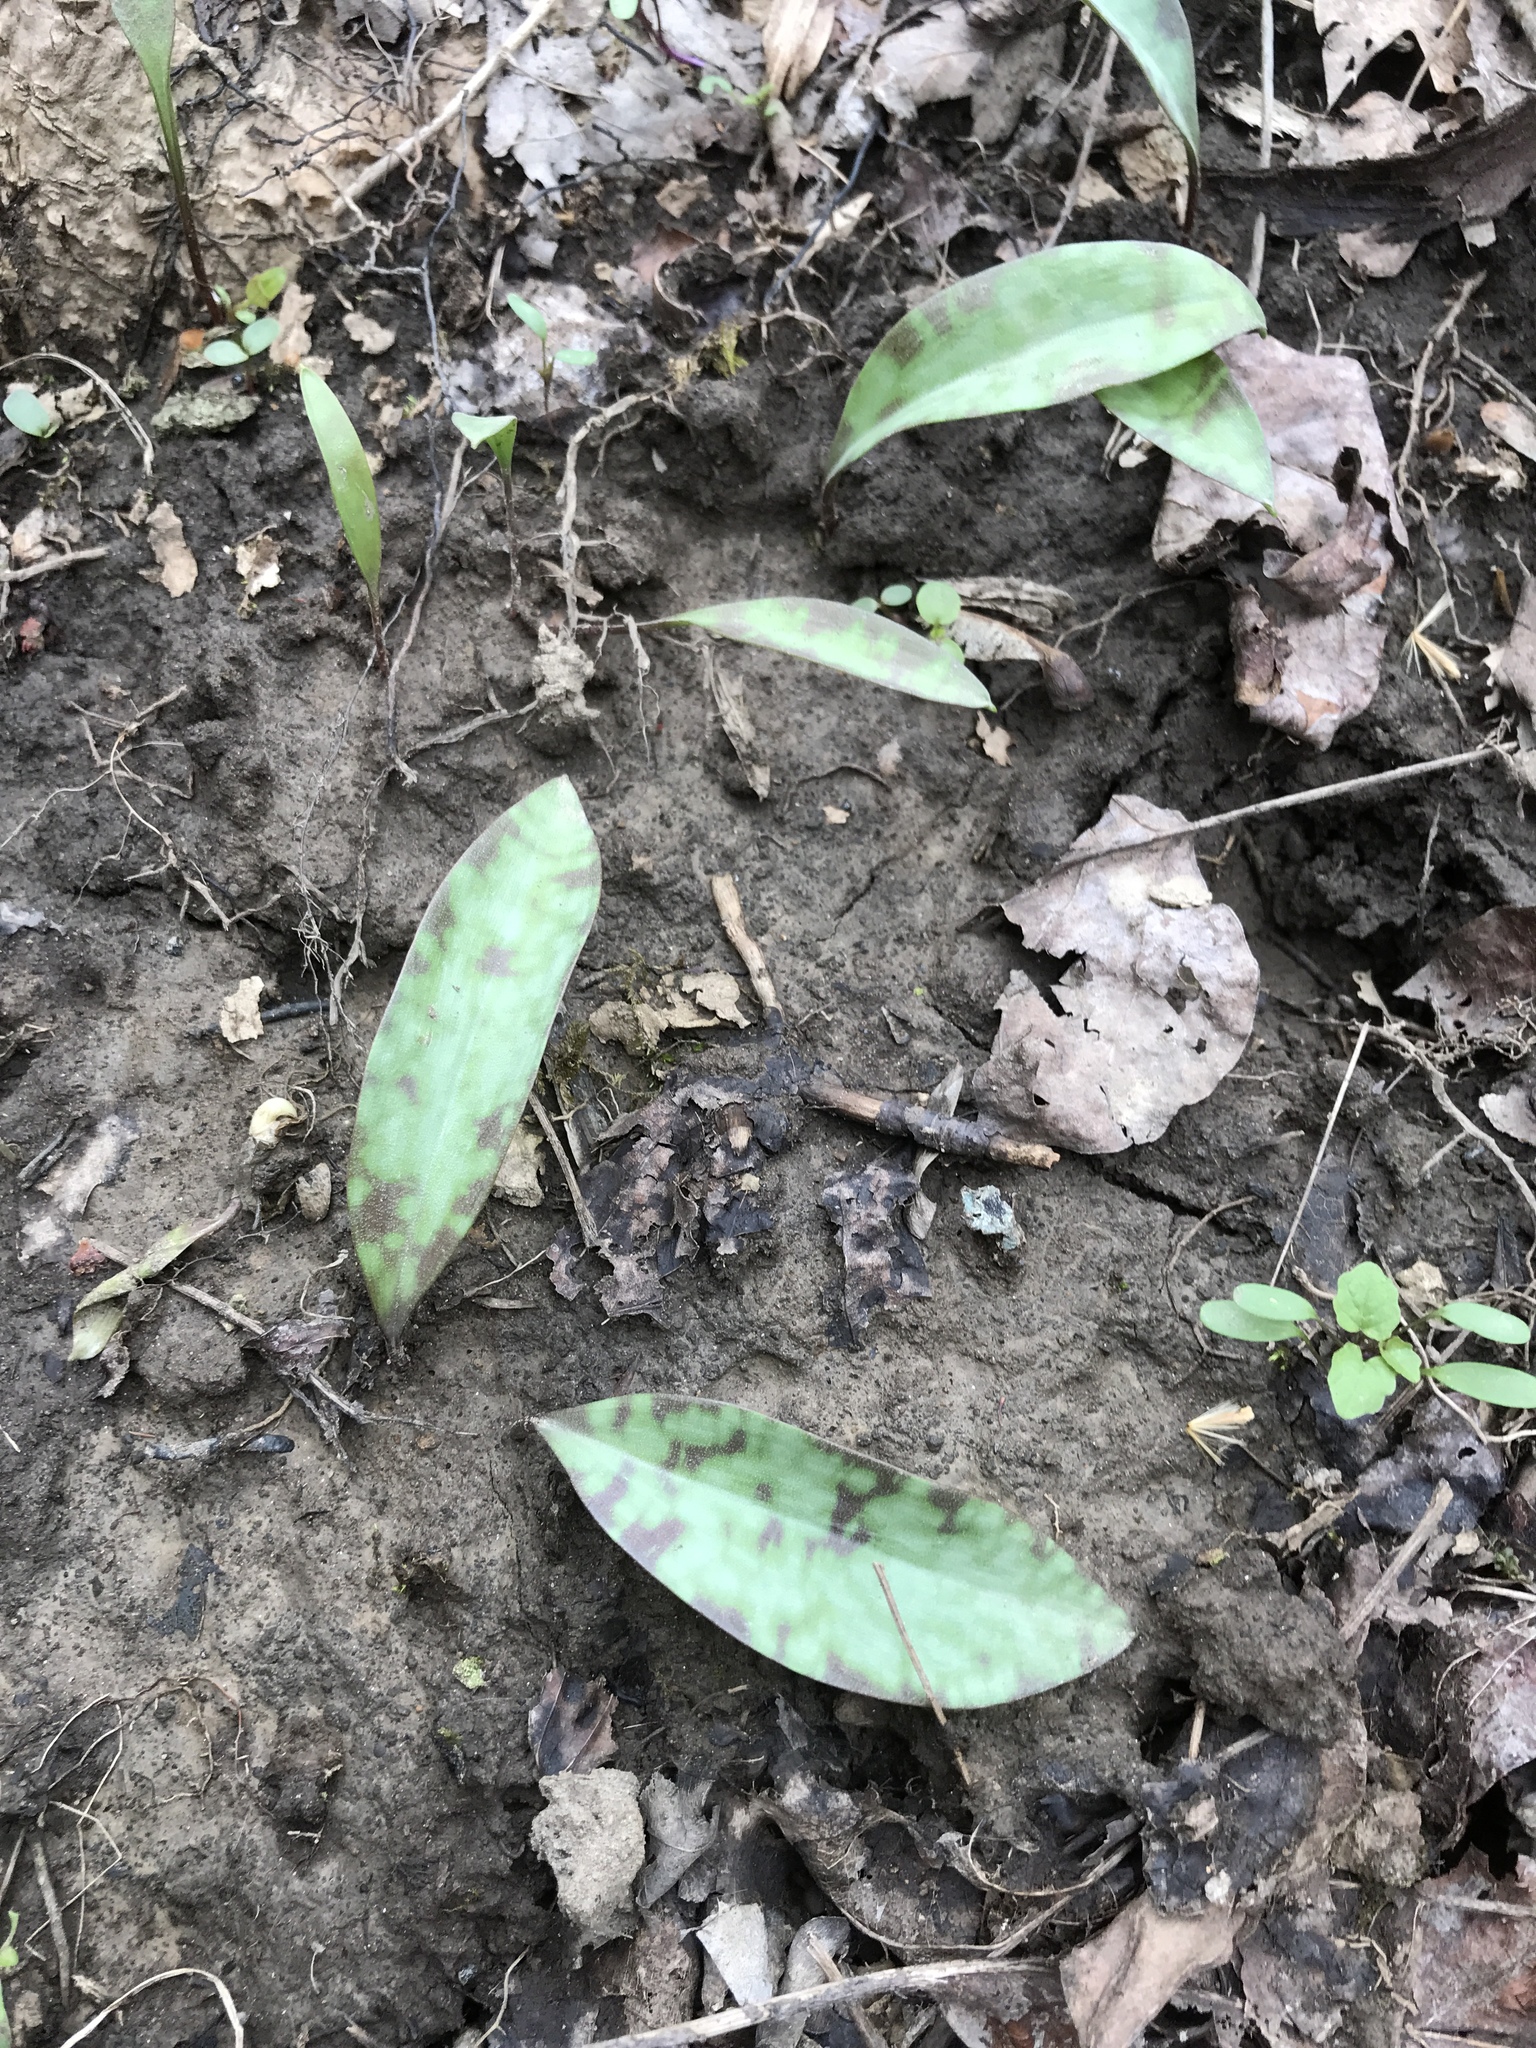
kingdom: Plantae
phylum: Tracheophyta
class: Liliopsida
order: Liliales
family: Liliaceae
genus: Erythronium
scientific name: Erythronium americanum
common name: Yellow adder's-tongue
